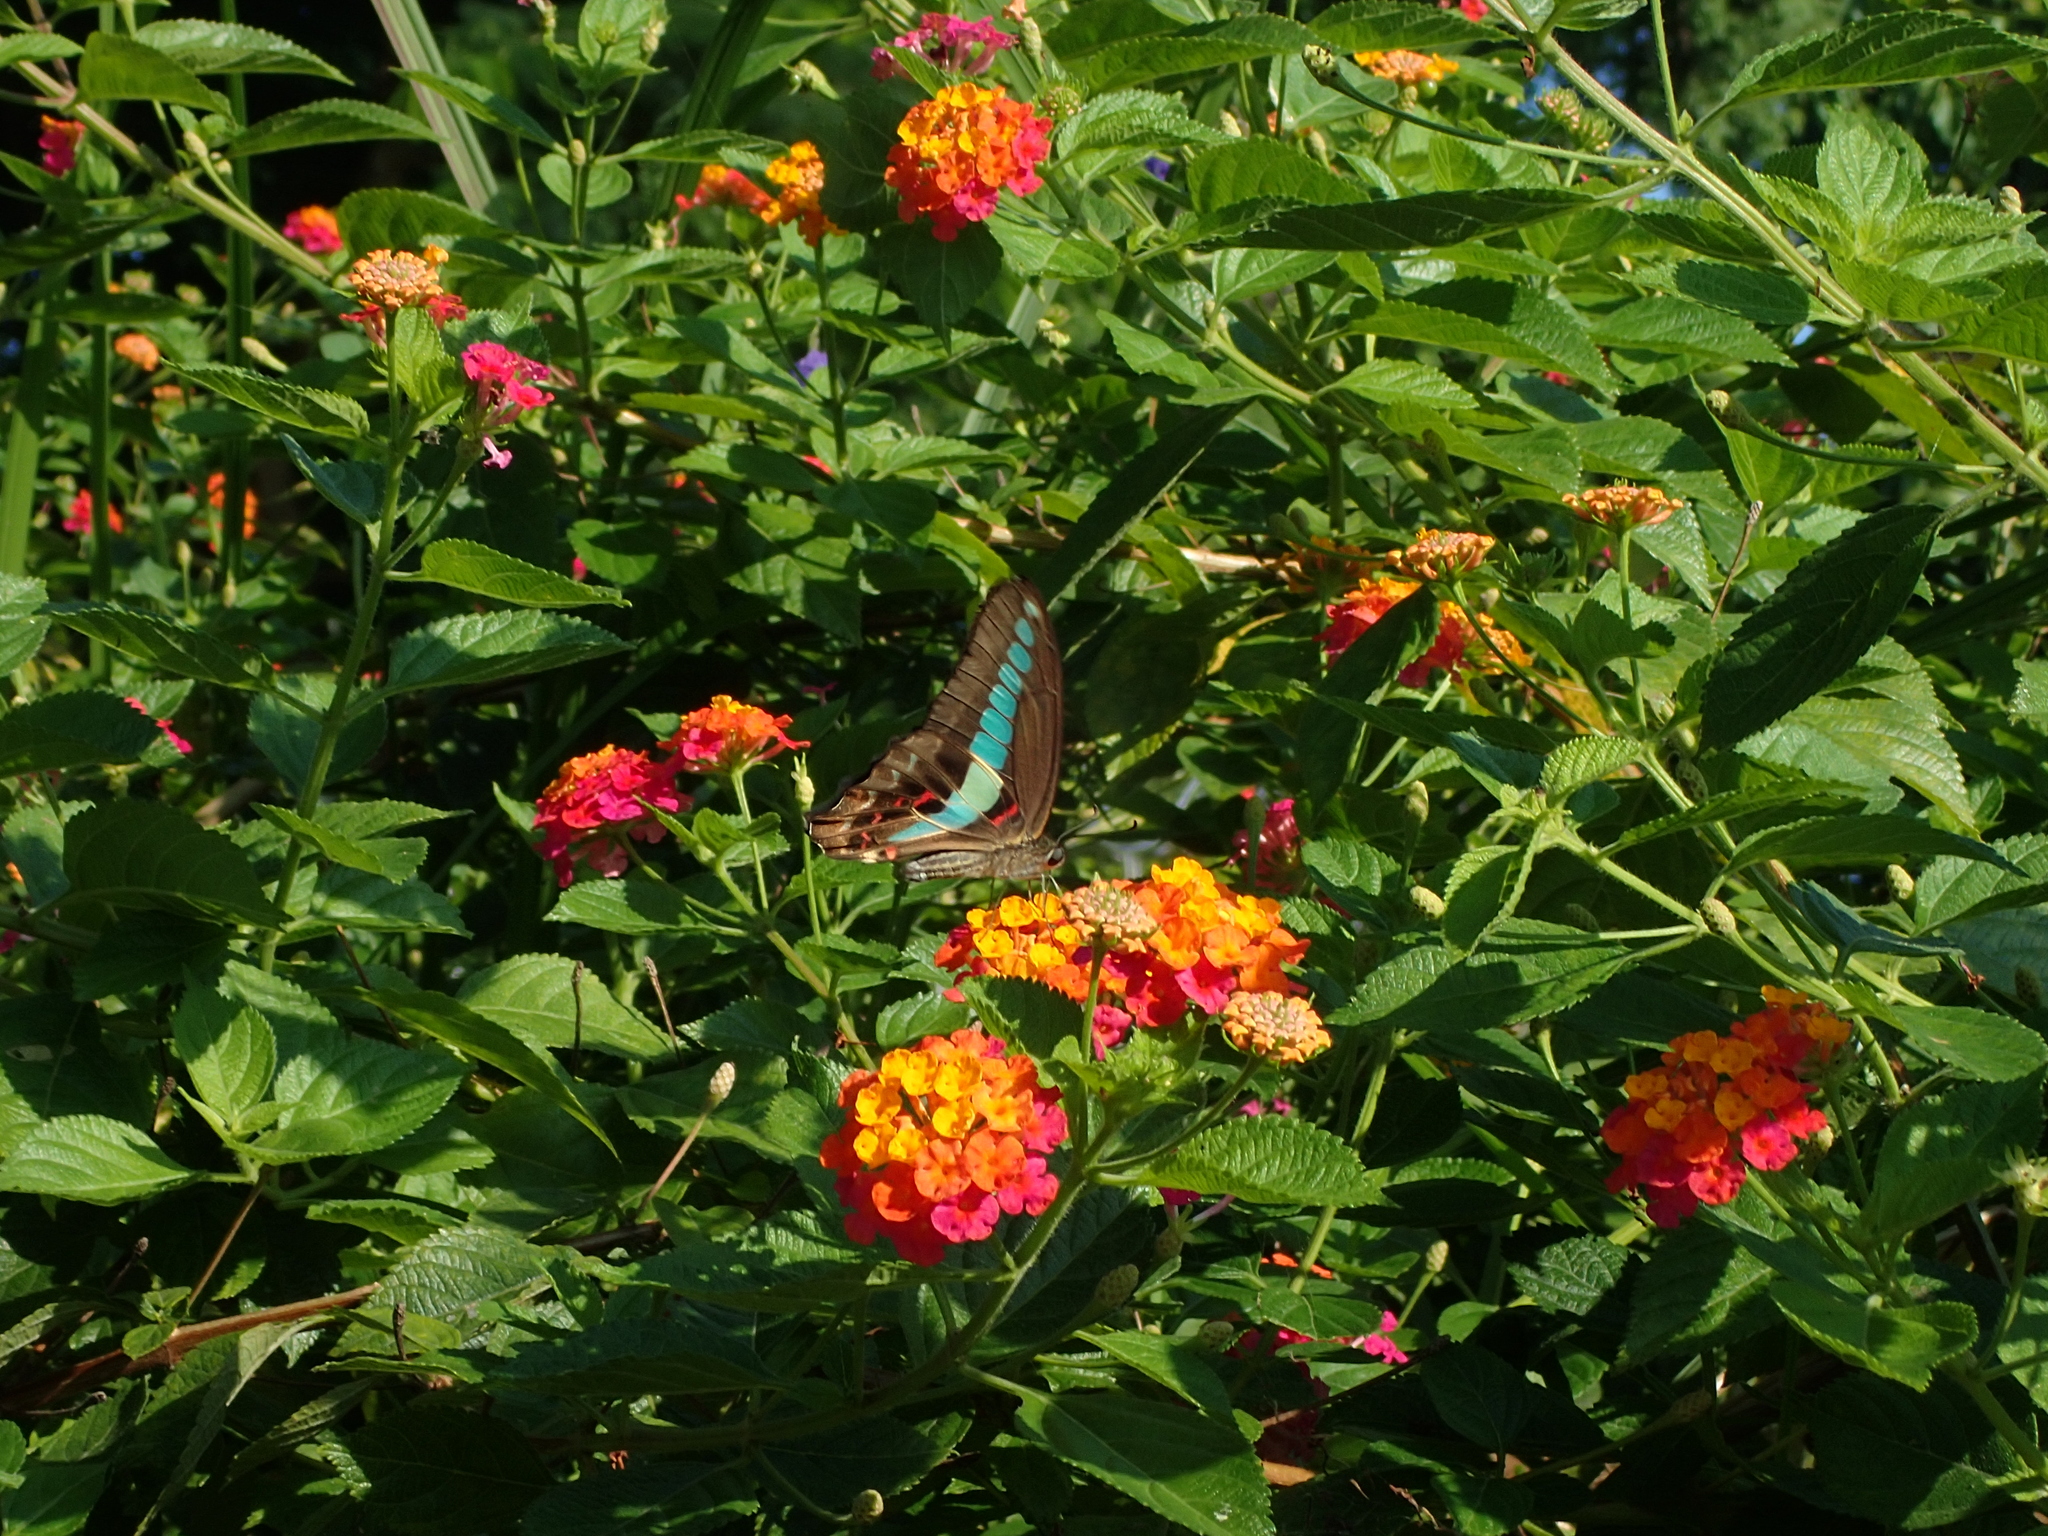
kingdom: Fungi
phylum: Ascomycota
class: Sordariomycetes
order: Microascales
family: Microascaceae
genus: Graphium
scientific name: Graphium sarpedon
